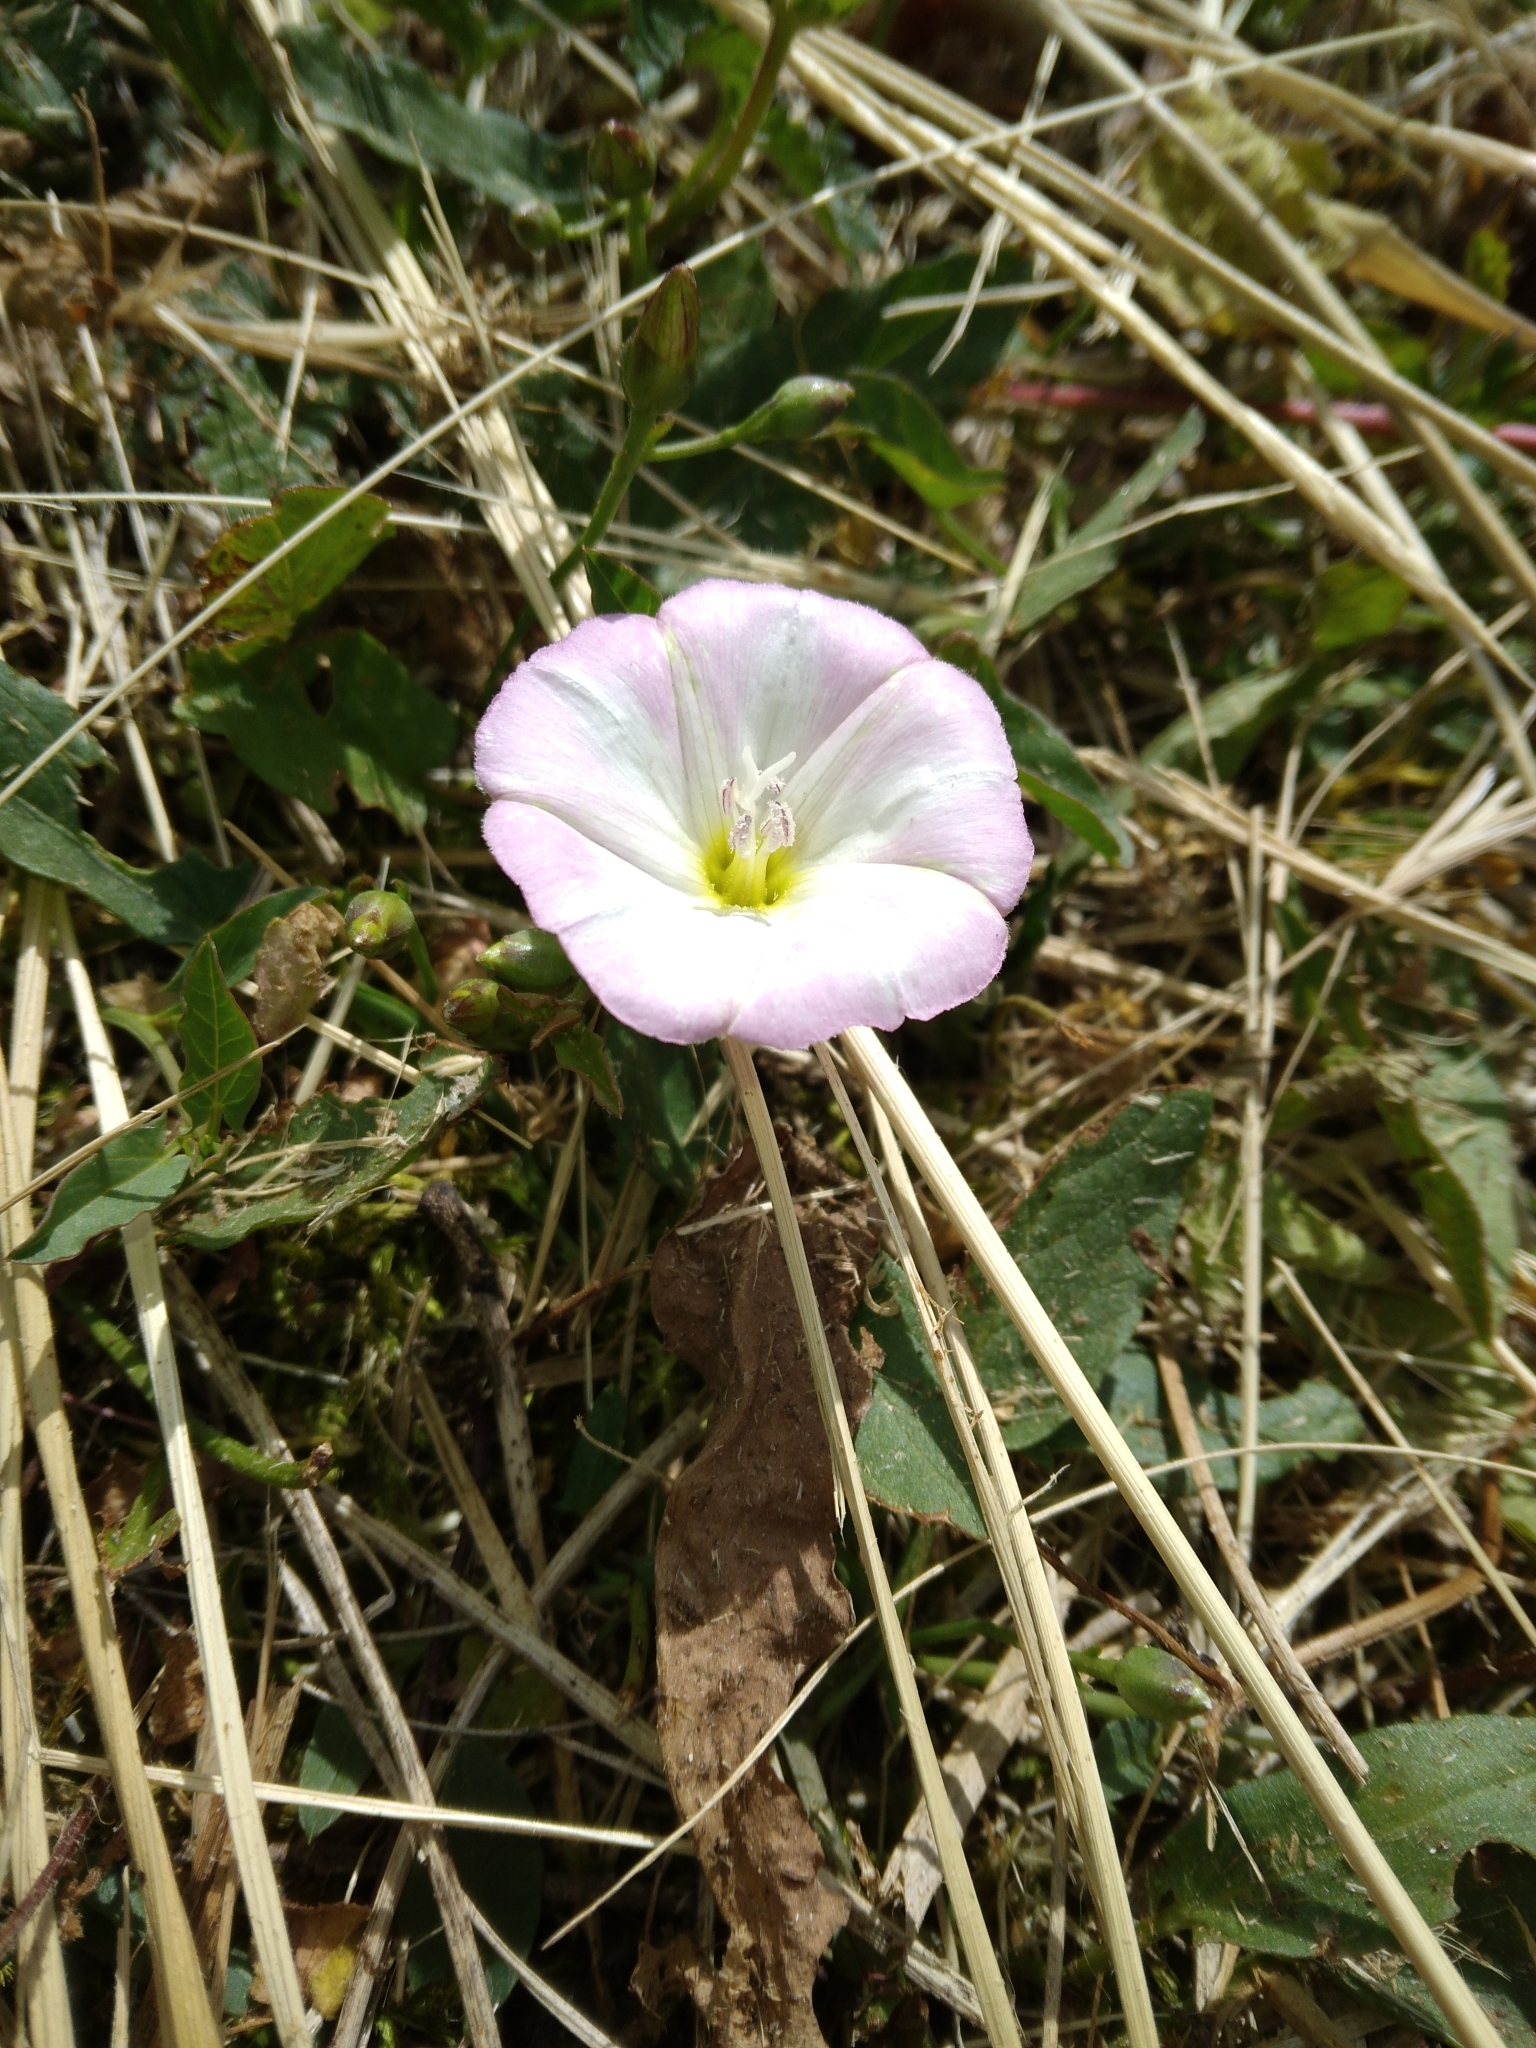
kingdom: Plantae
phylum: Tracheophyta
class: Magnoliopsida
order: Solanales
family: Convolvulaceae
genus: Convolvulus
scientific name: Convolvulus arvensis
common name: Field bindweed
